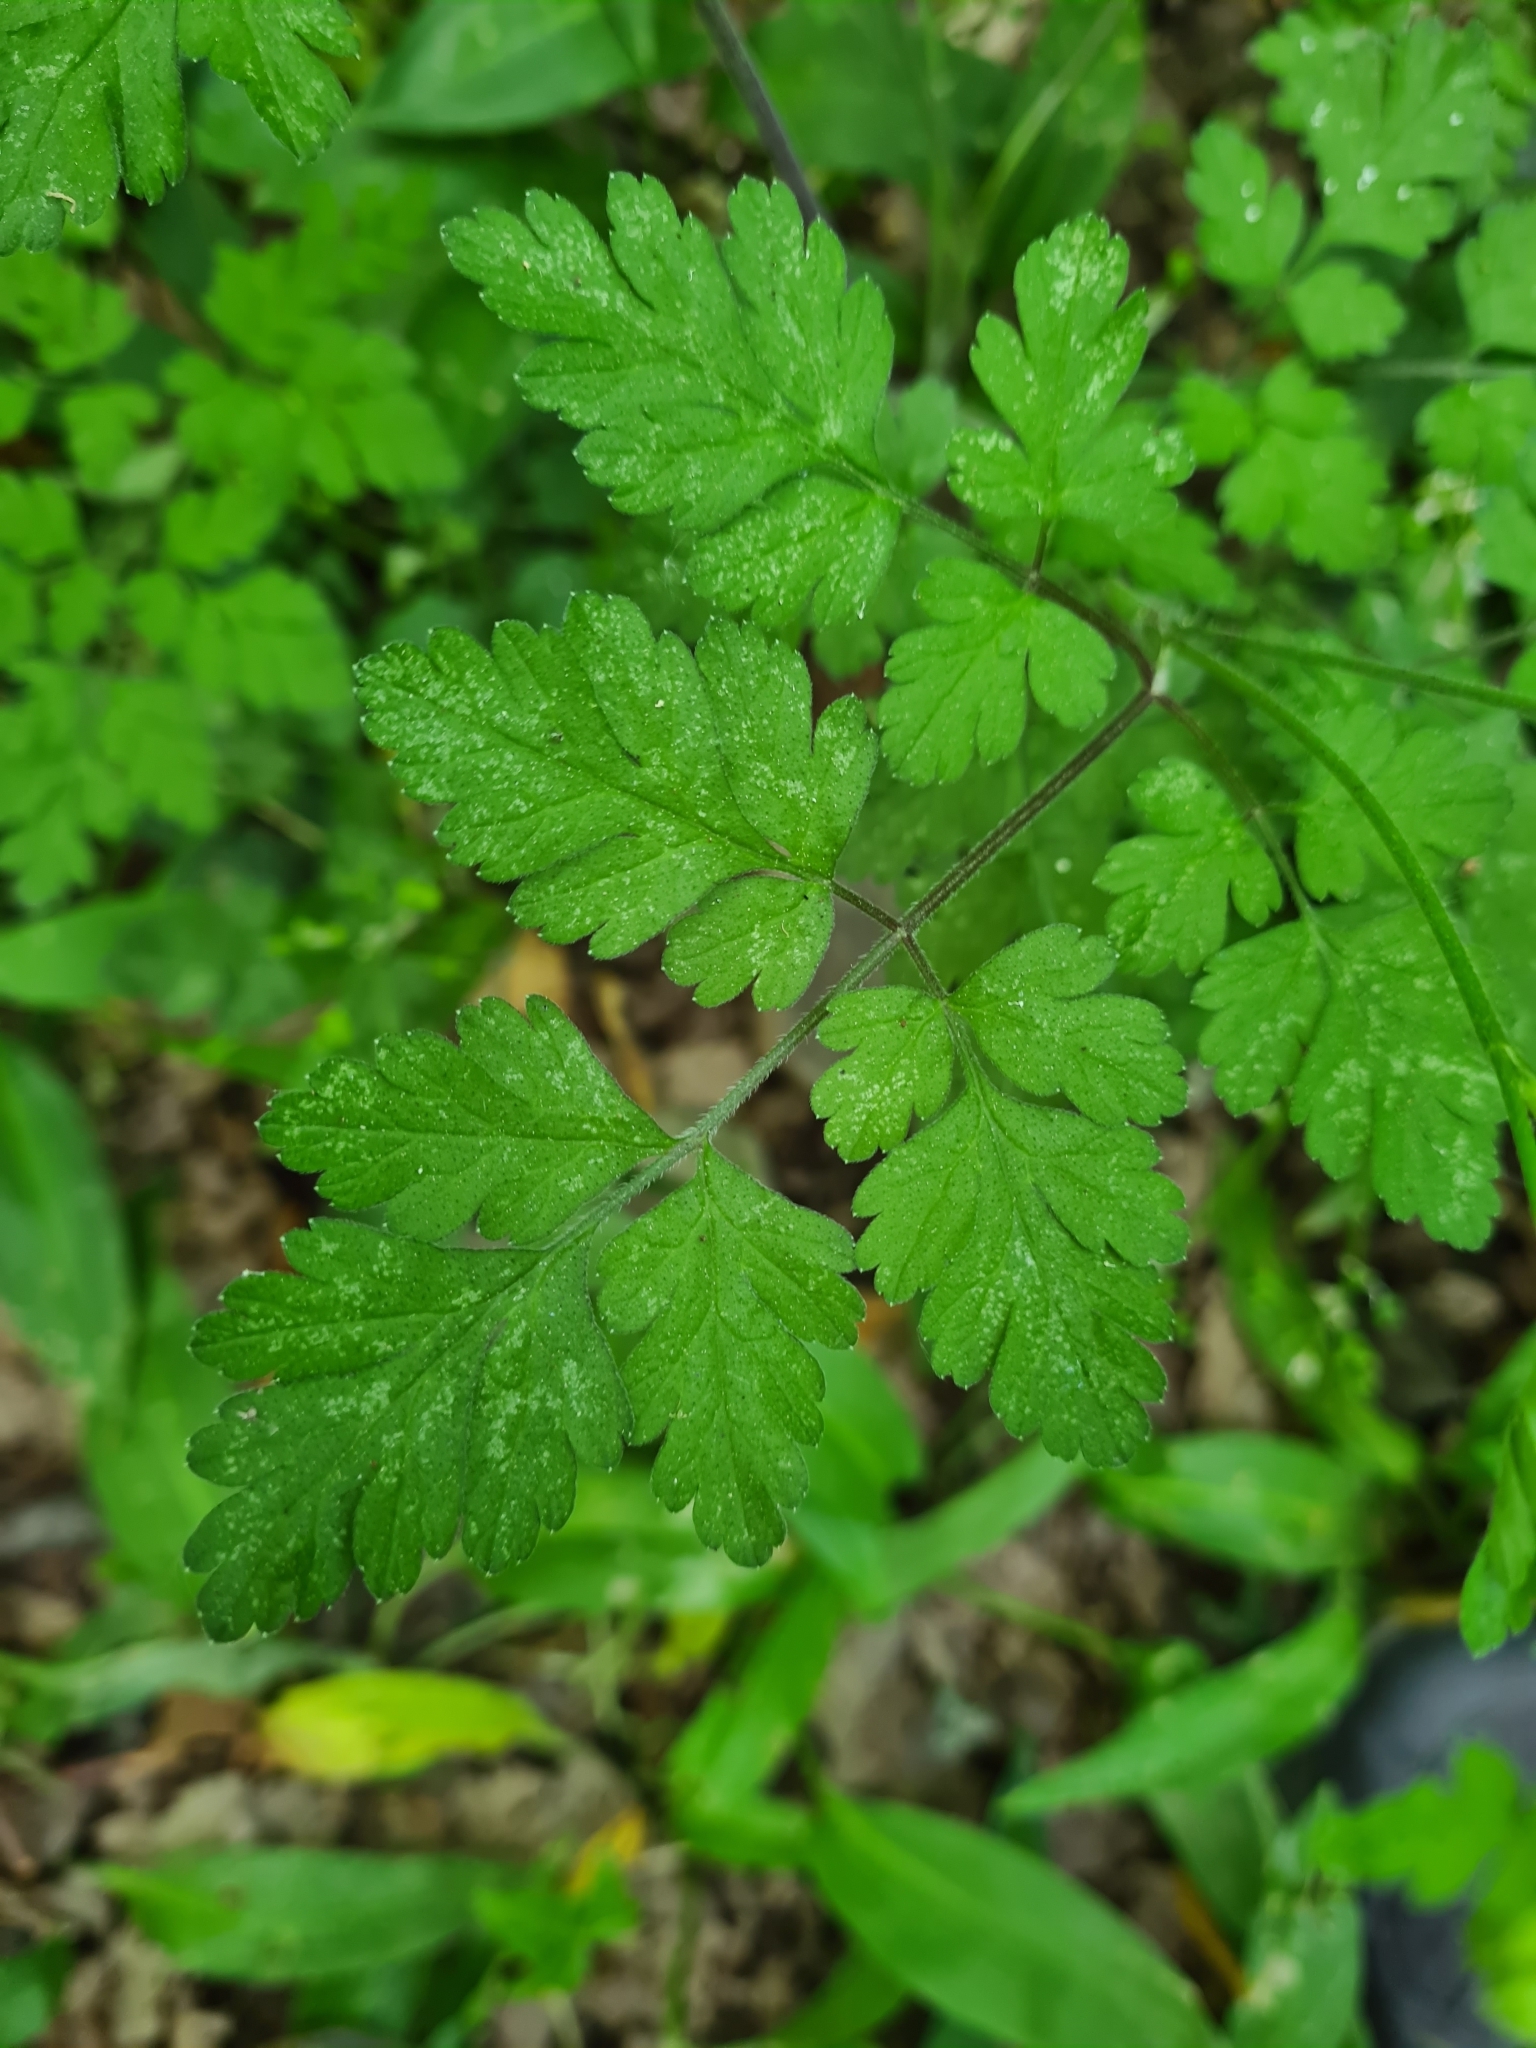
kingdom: Plantae
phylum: Tracheophyta
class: Magnoliopsida
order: Apiales
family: Apiaceae
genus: Chaerophyllum
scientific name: Chaerophyllum temulum
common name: Rough chervil
